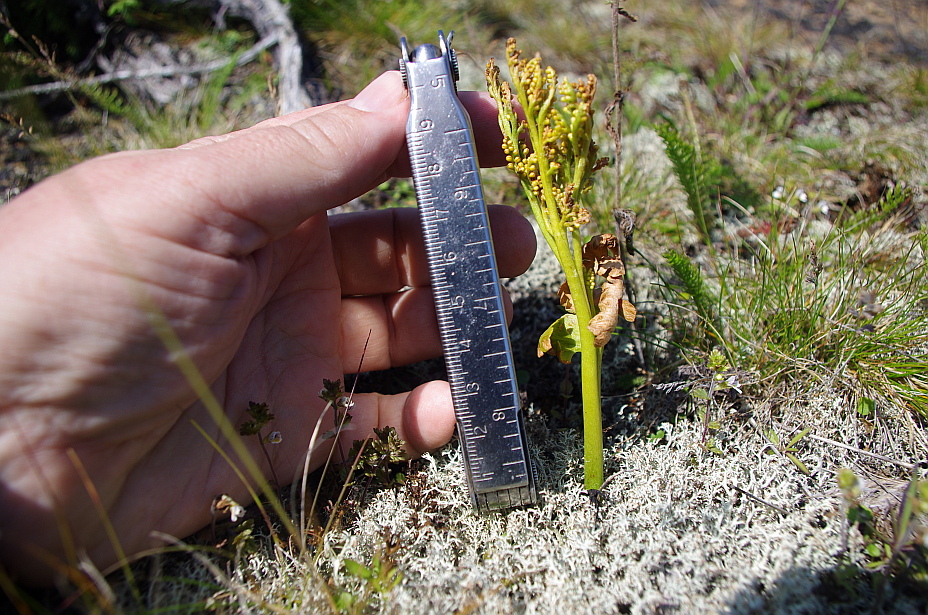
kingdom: Plantae
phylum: Tracheophyta
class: Polypodiopsida
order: Ophioglossales
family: Ophioglossaceae
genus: Botrychium
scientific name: Botrychium boreale
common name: Boreal moonwort
